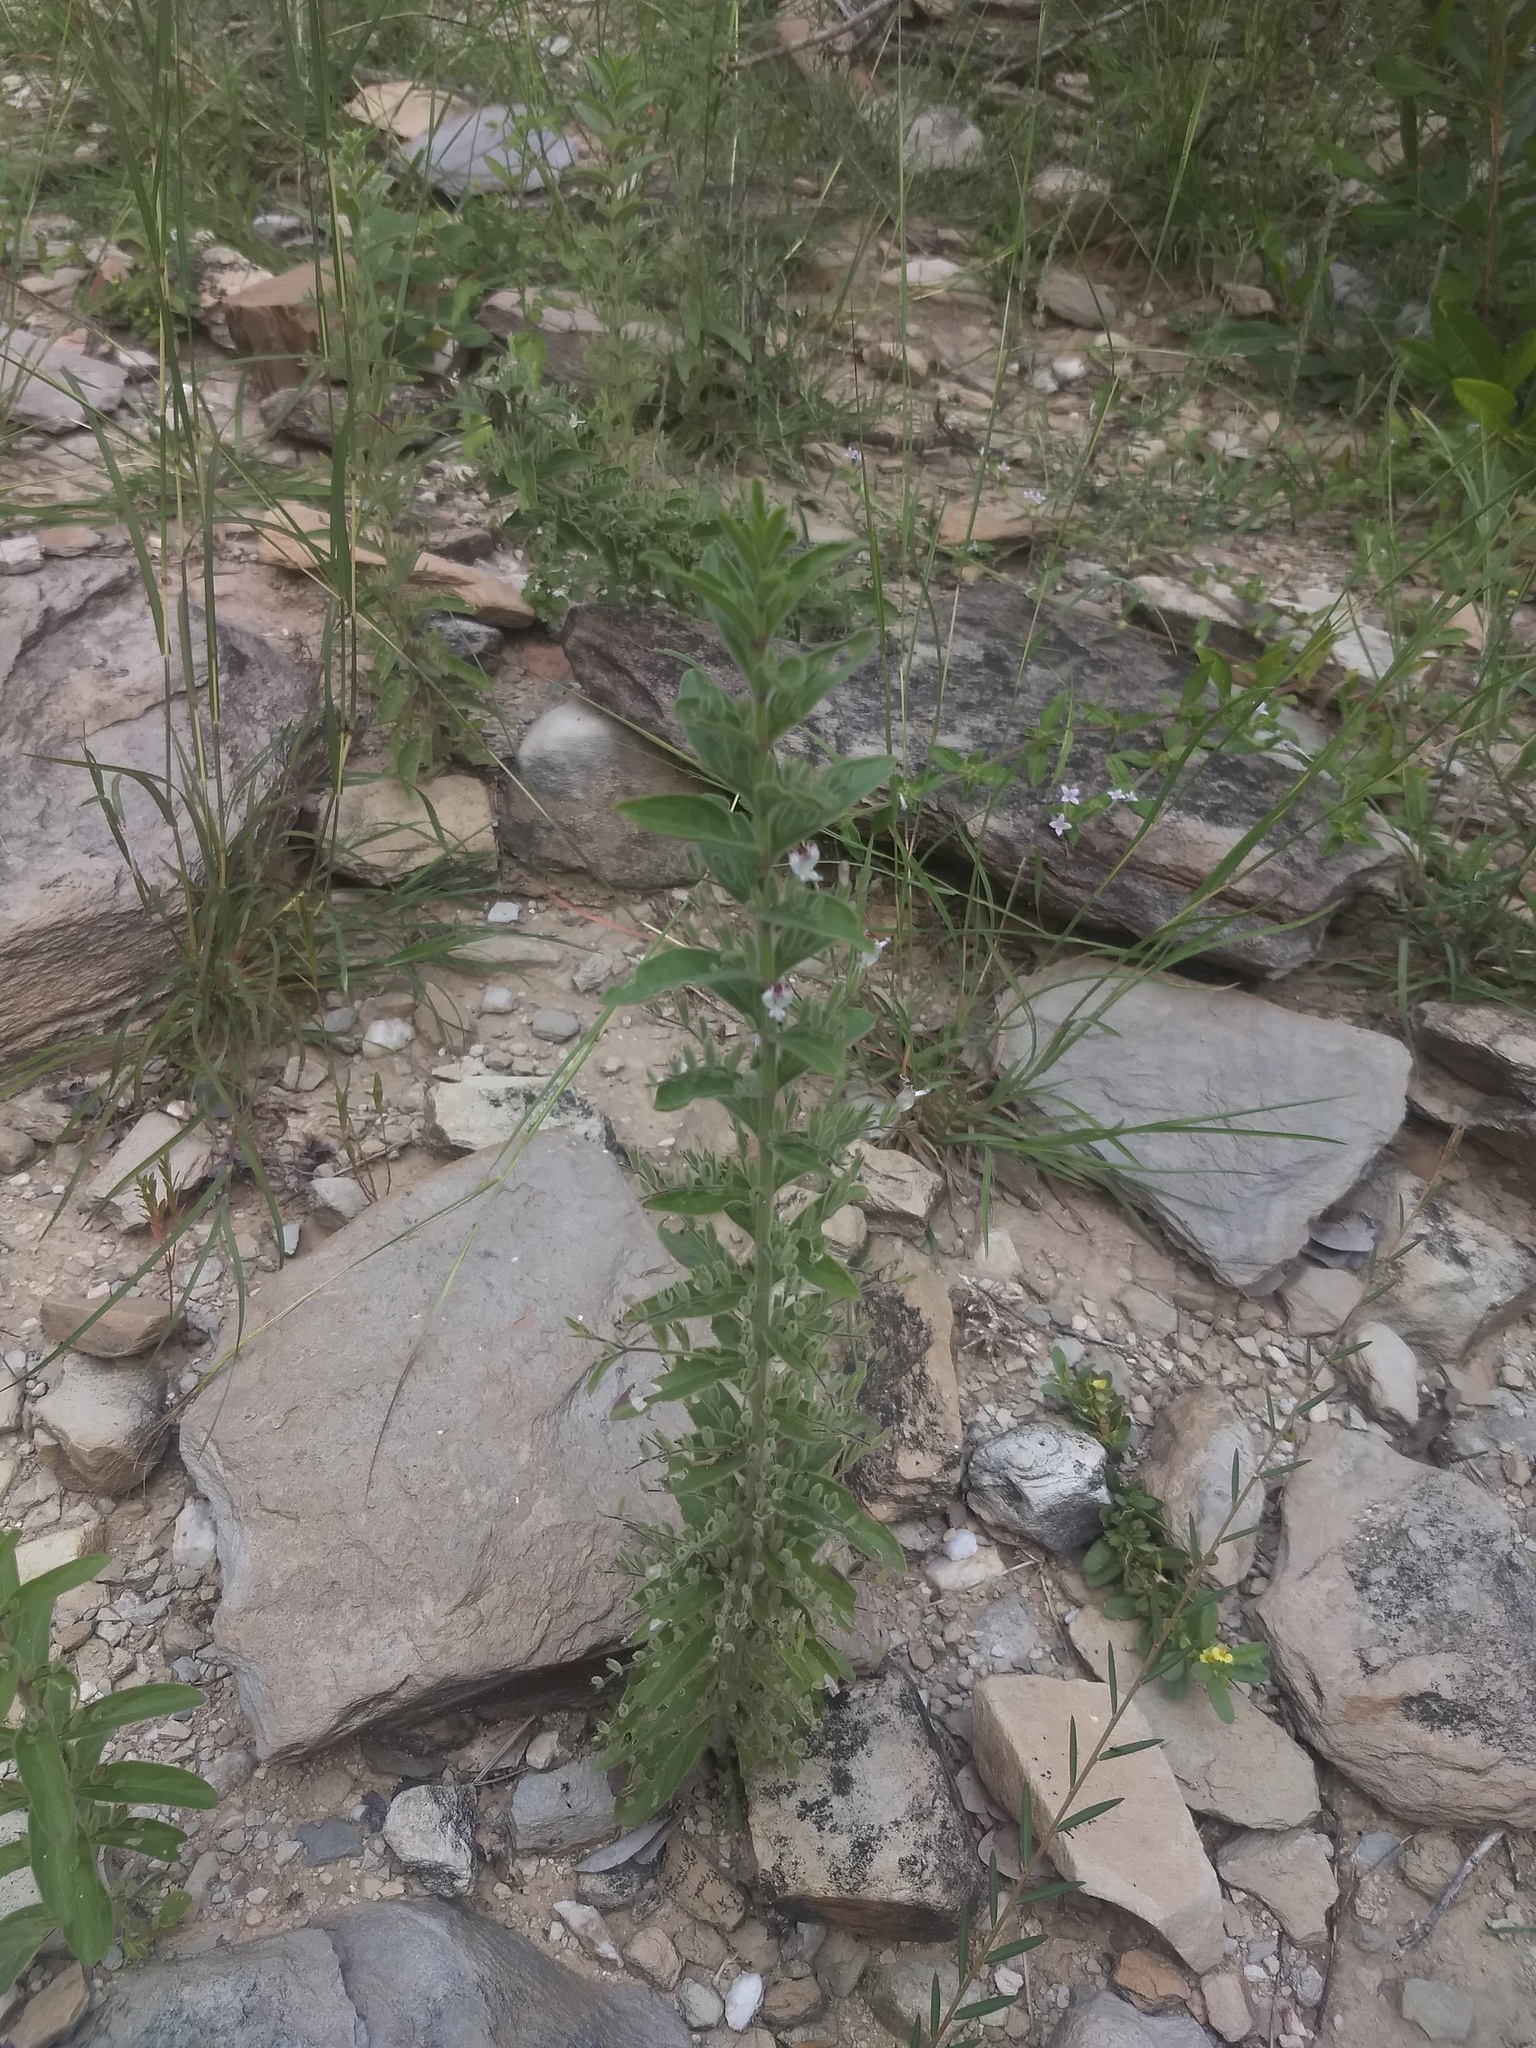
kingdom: Plantae
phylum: Tracheophyta
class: Magnoliopsida
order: Lamiales
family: Acanthaceae
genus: Andrographis
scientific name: Andrographis echioides
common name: False waterwillow
